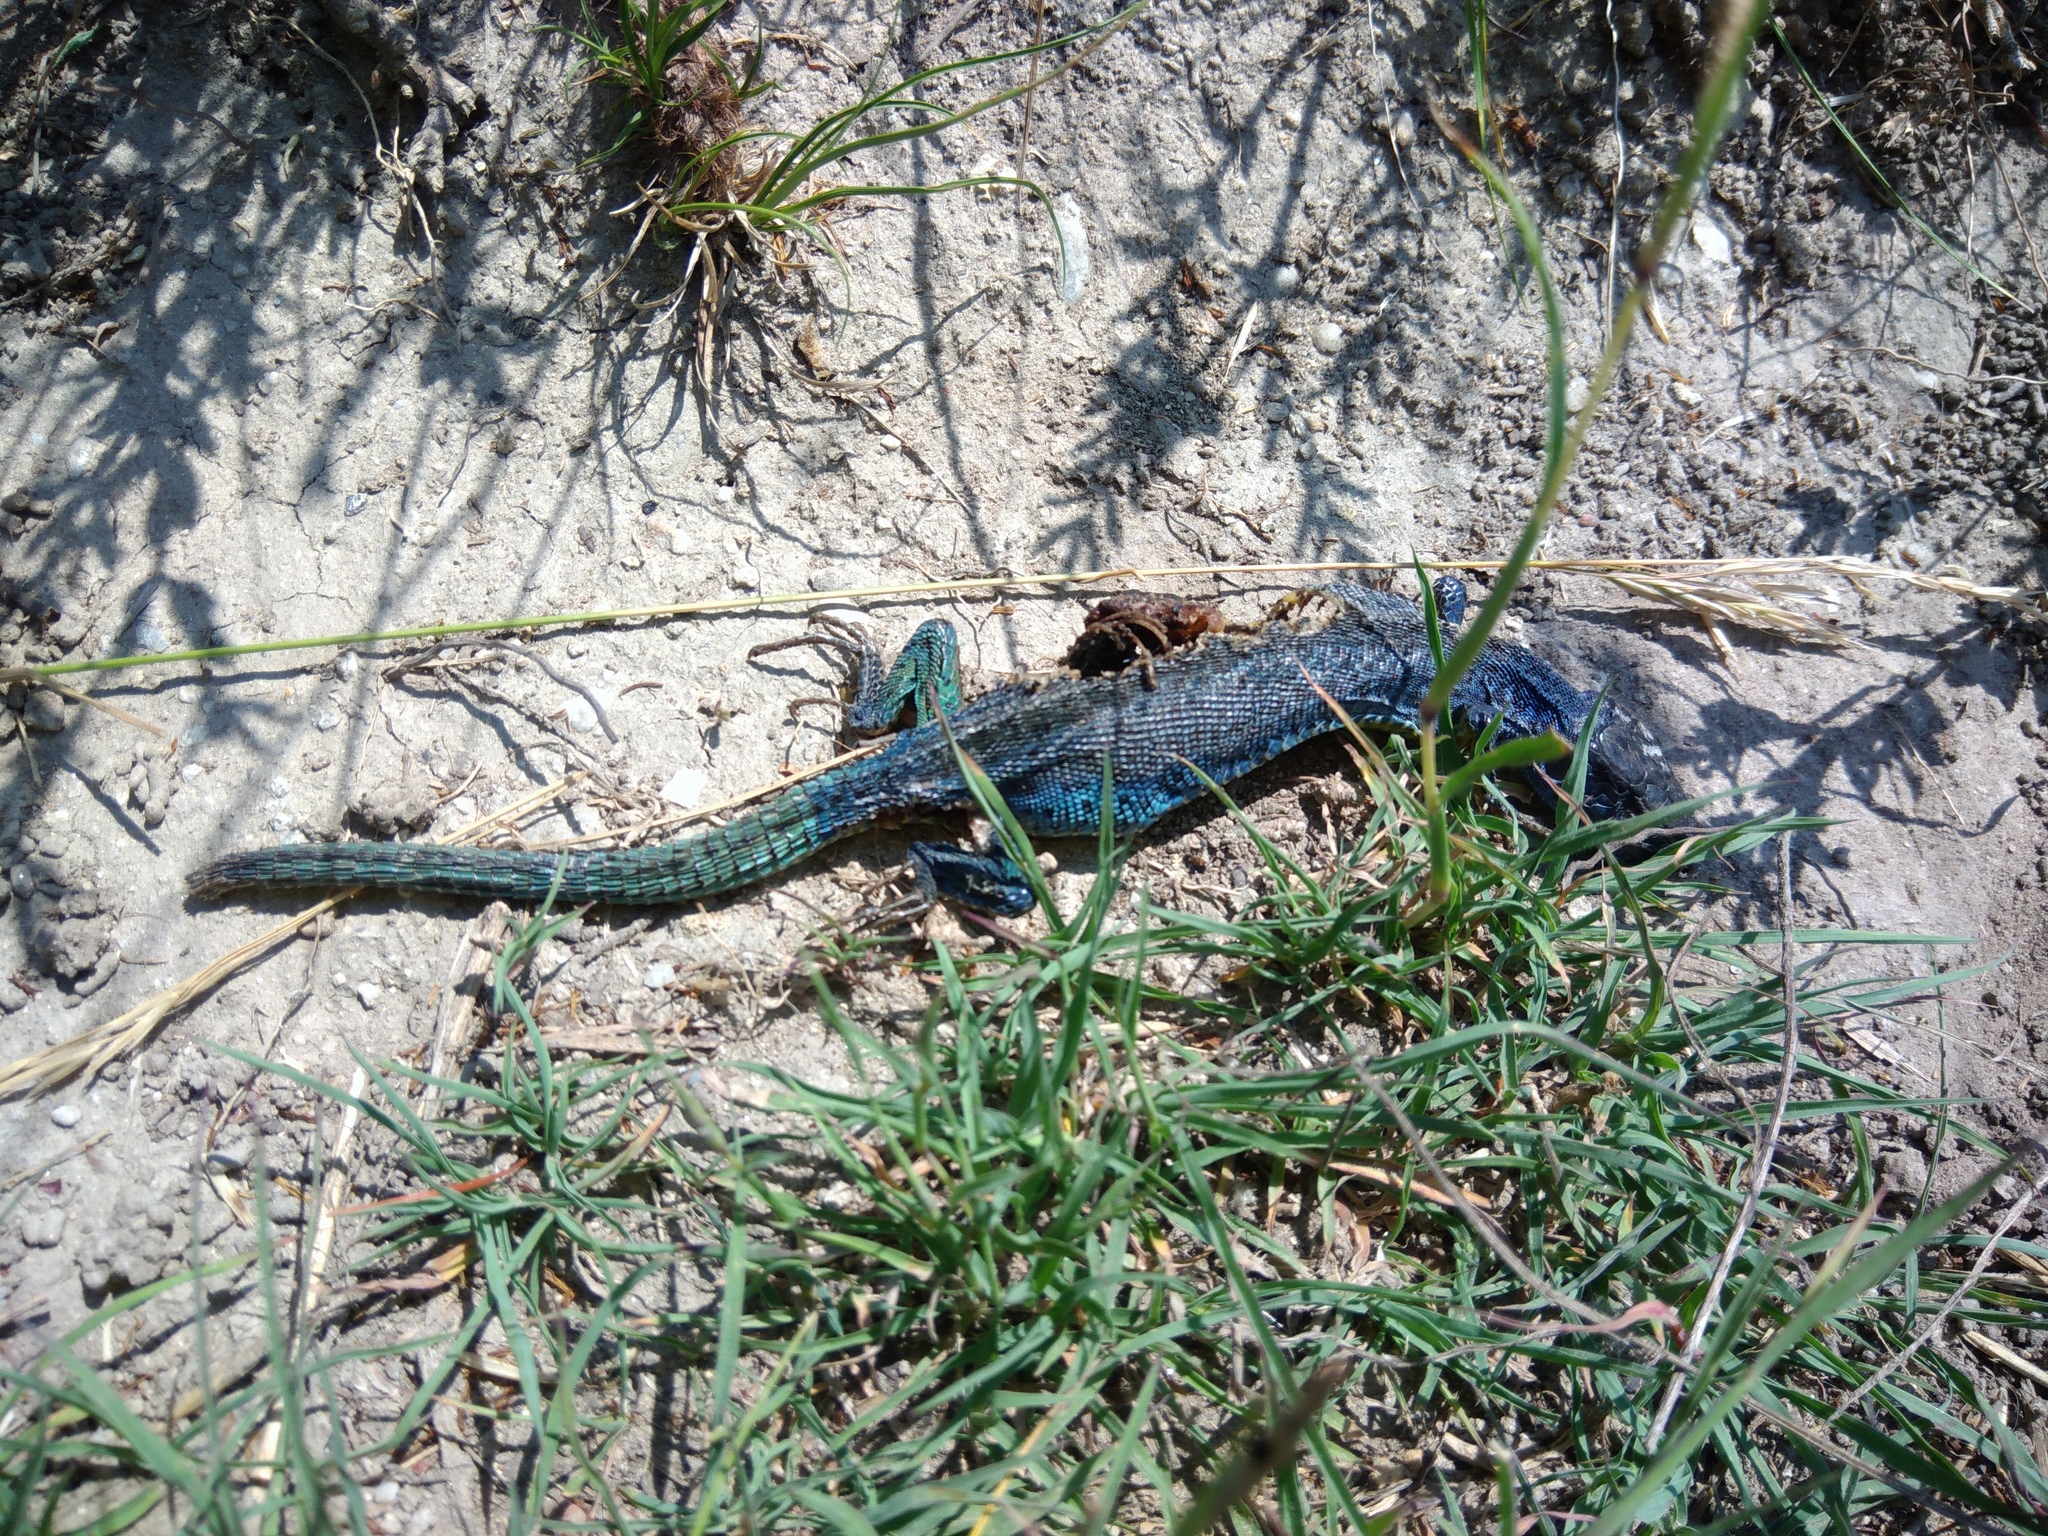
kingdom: Animalia
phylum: Chordata
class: Squamata
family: Lacertidae
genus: Lacerta
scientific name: Lacerta agilis
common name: Sand lizard
